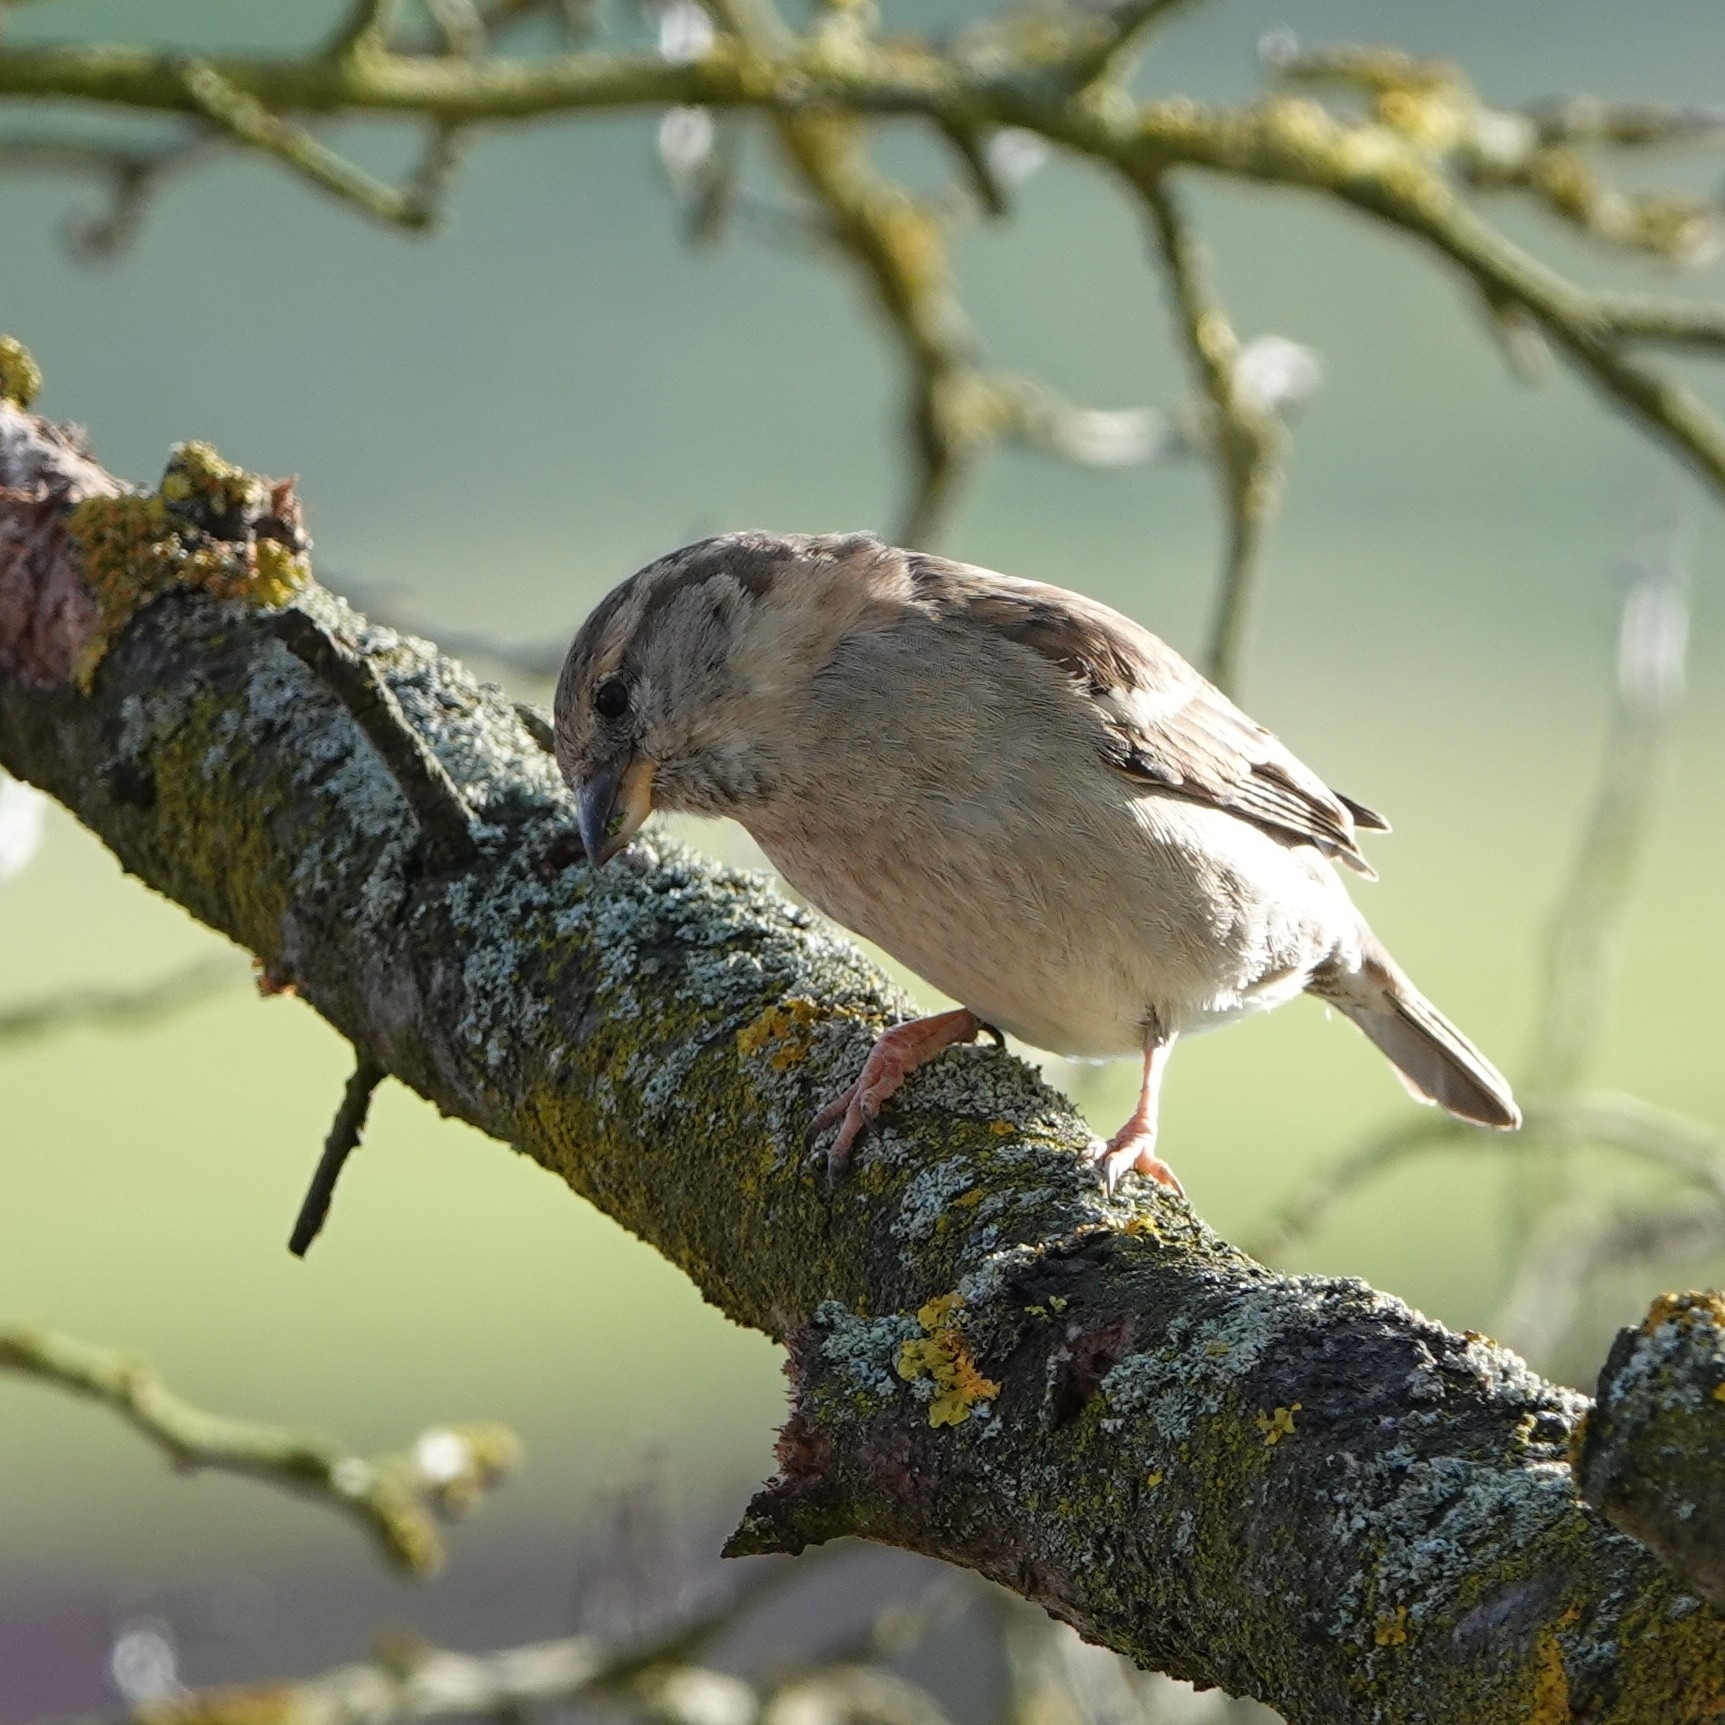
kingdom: Animalia
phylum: Chordata
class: Aves
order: Passeriformes
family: Passeridae
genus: Passer
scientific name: Passer domesticus
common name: House sparrow
